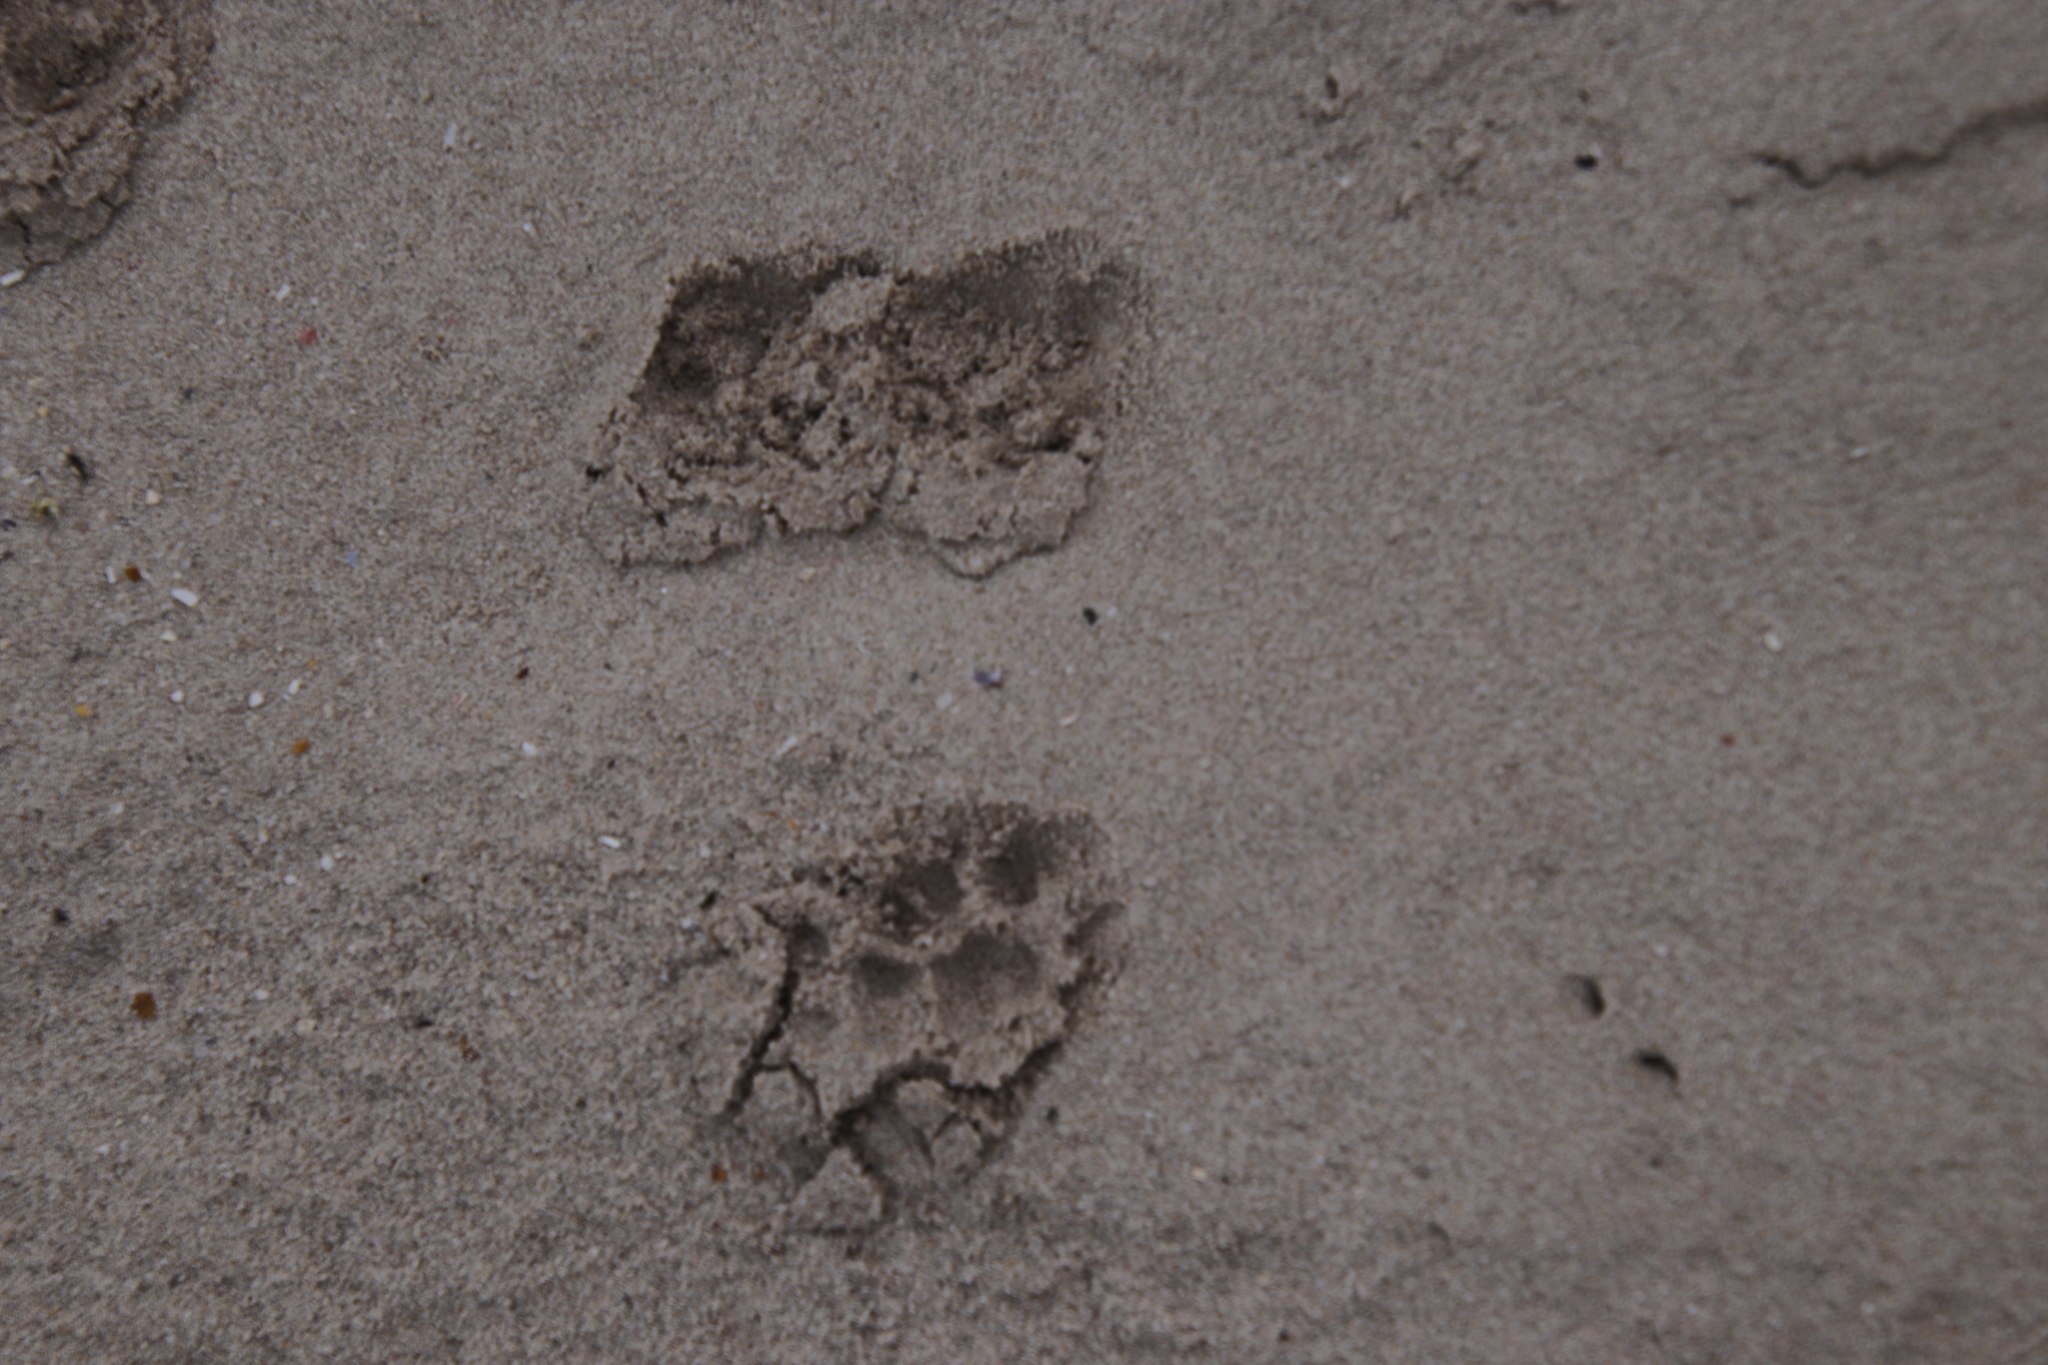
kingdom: Animalia
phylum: Chordata
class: Mammalia
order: Carnivora
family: Viverridae
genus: Genetta
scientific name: Genetta tigrina
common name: Cape genet
